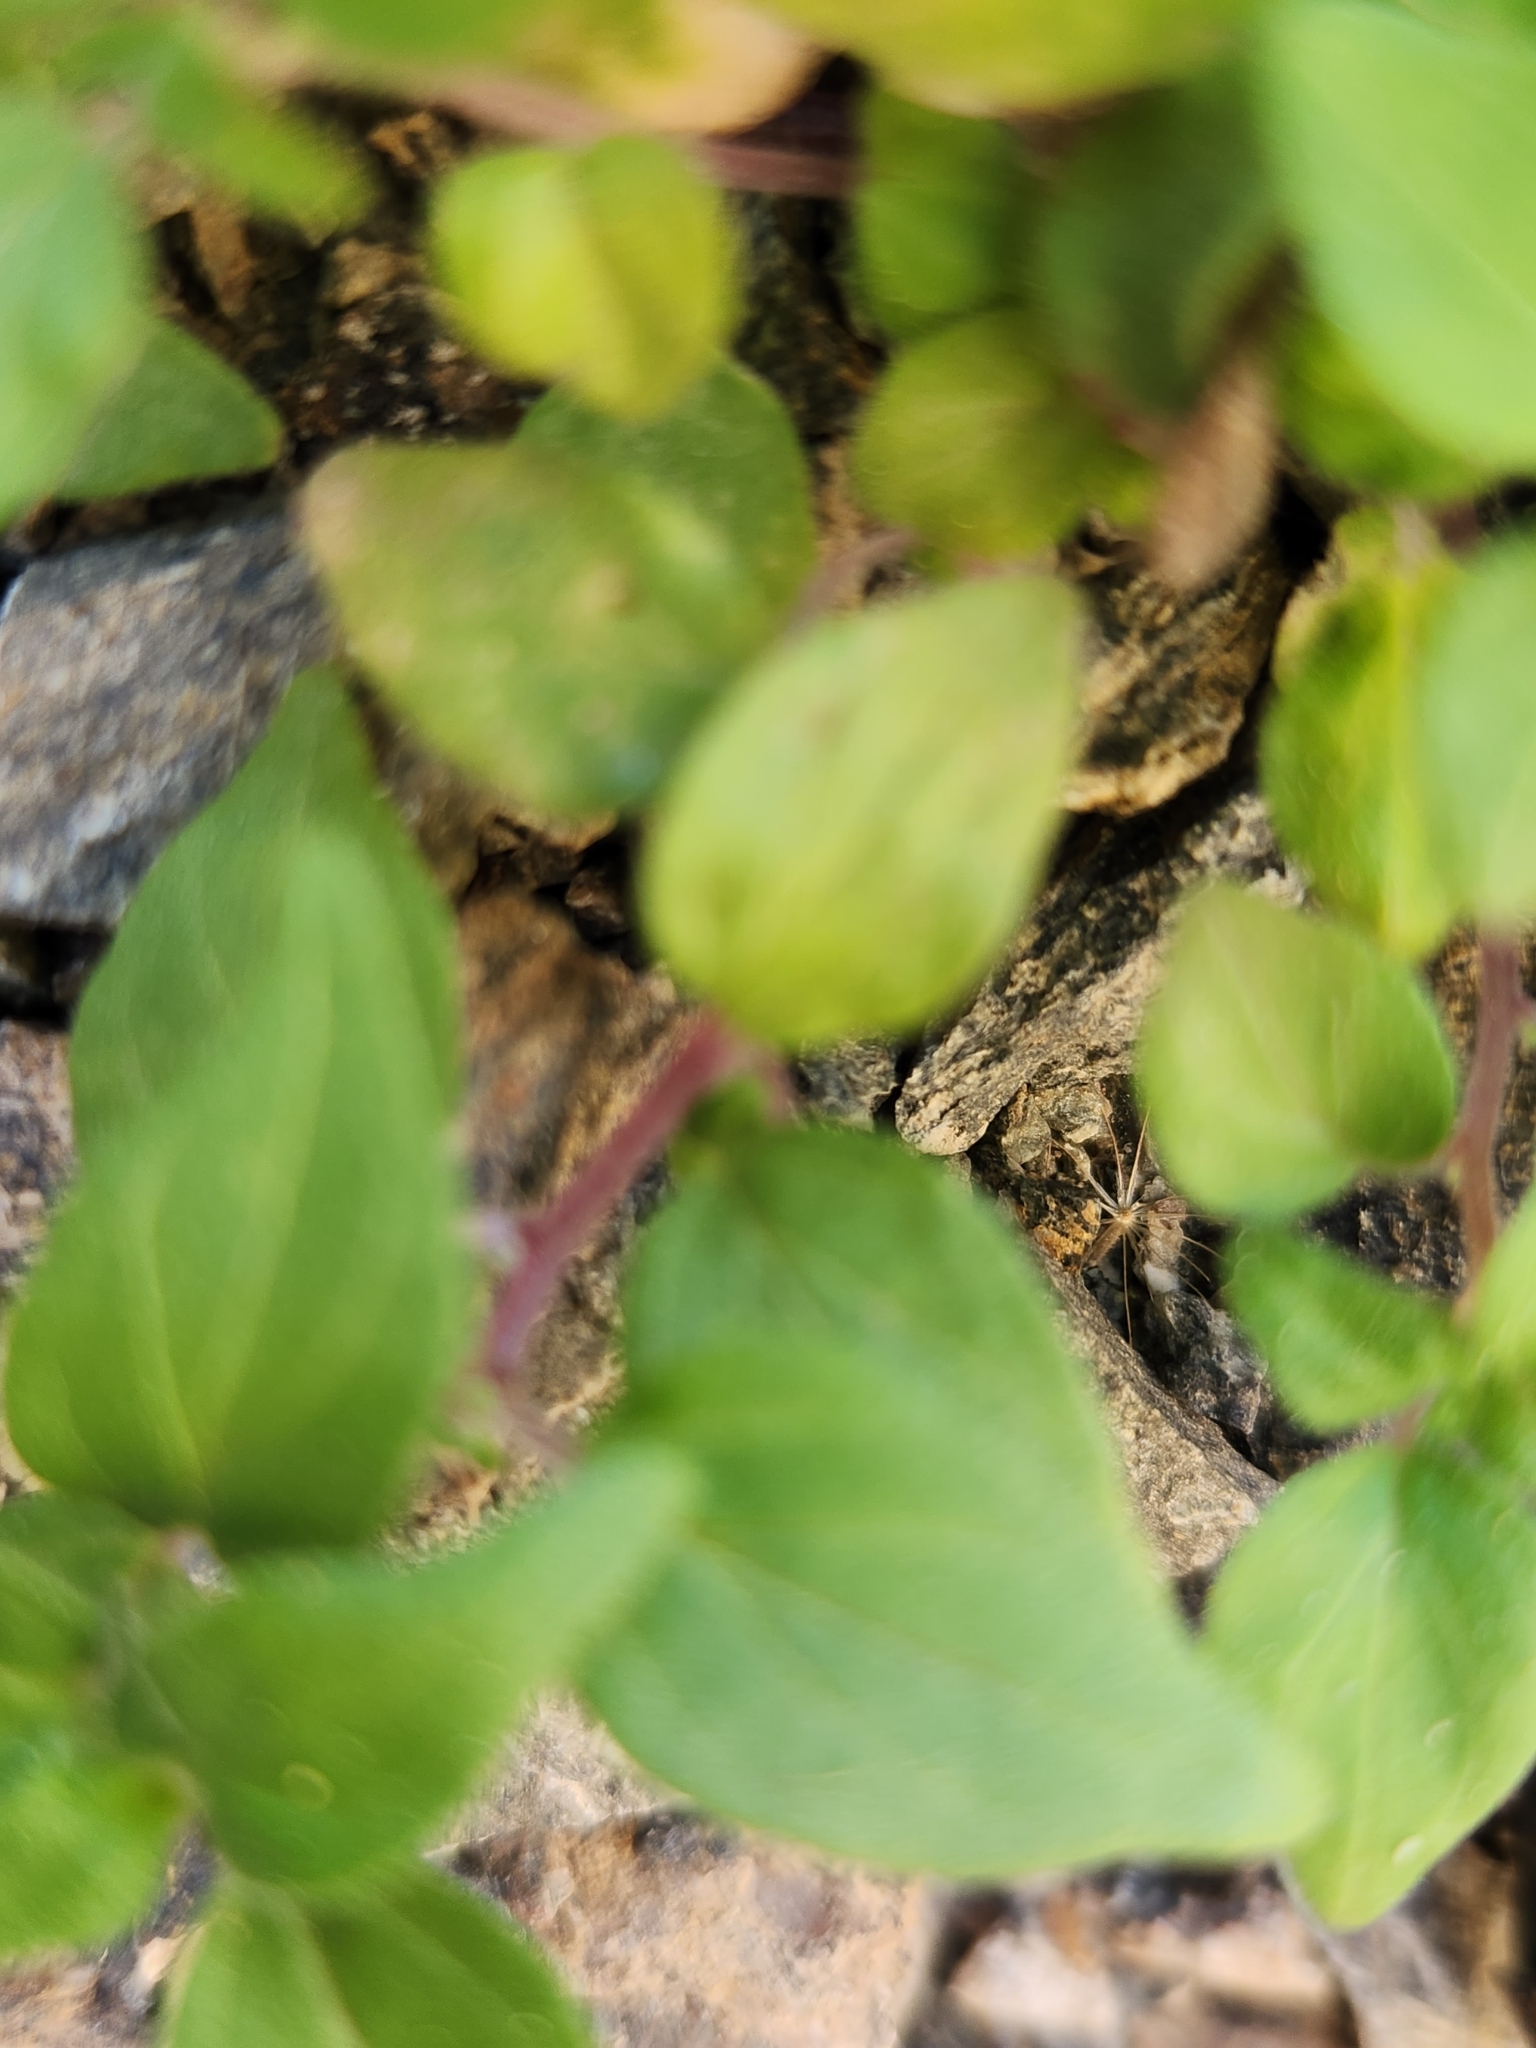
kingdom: Plantae
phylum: Tracheophyta
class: Magnoliopsida
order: Rosales
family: Urticaceae
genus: Parietaria
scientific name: Parietaria hespera
